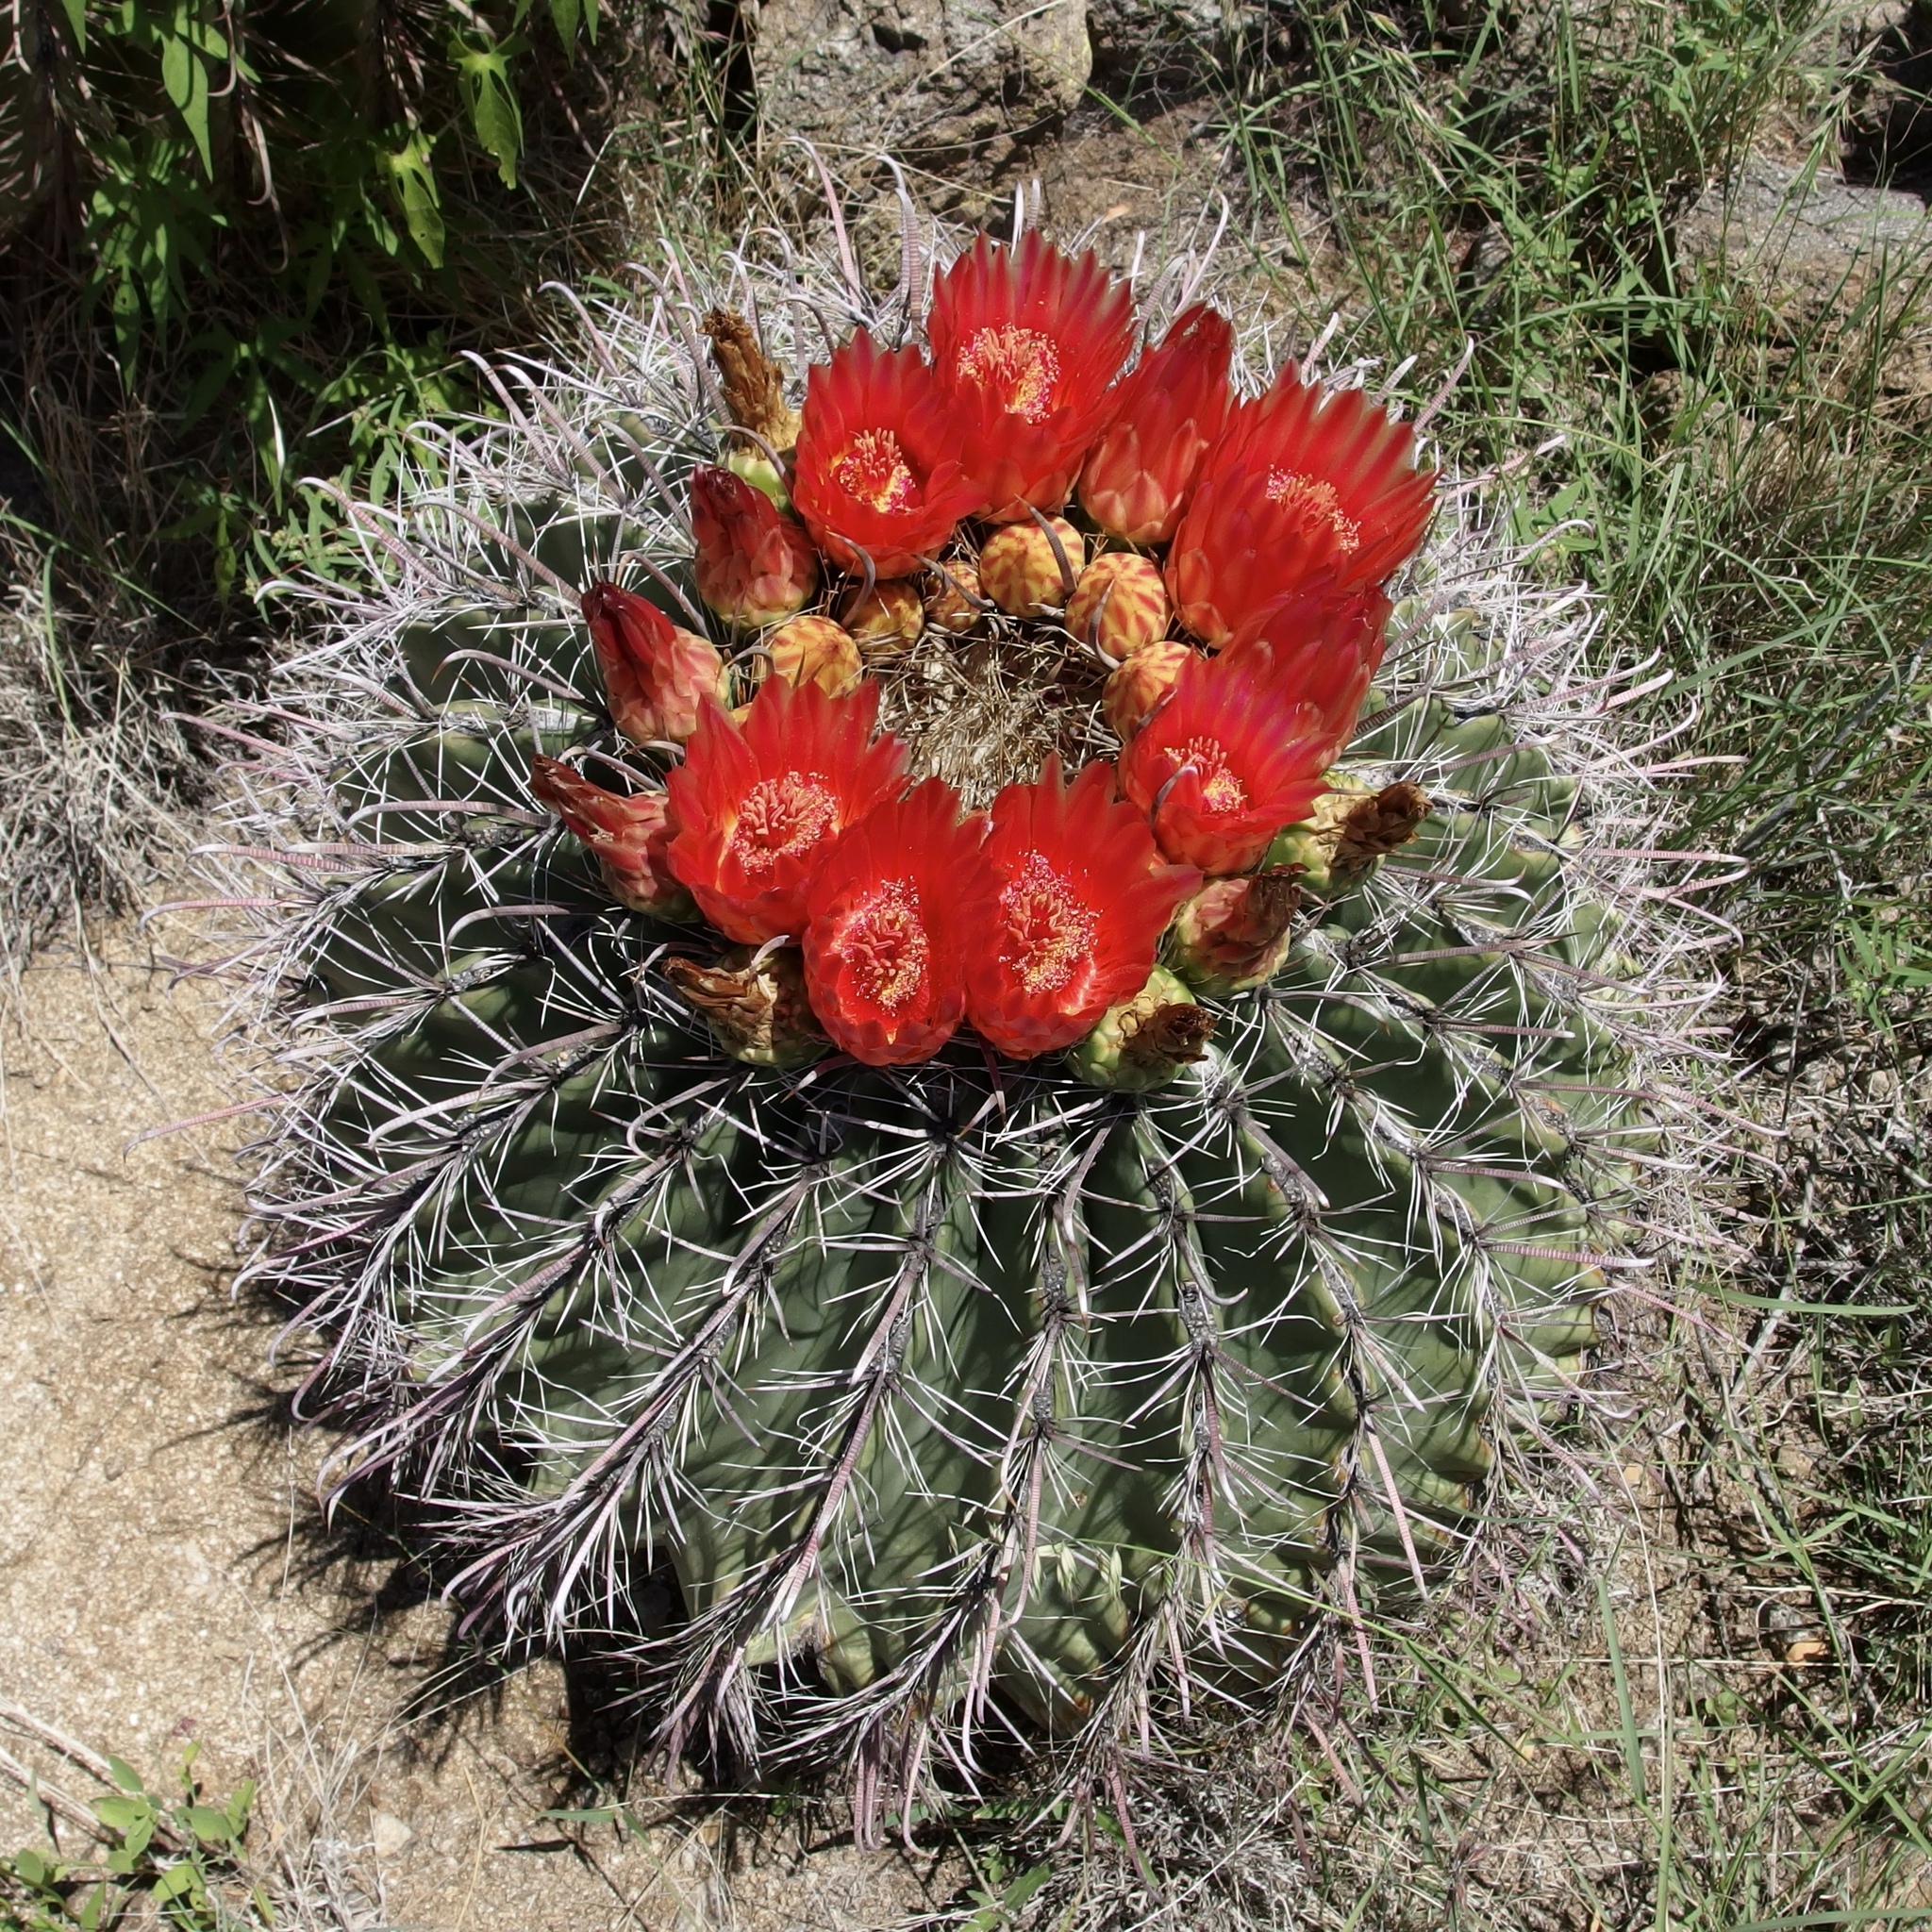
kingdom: Plantae
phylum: Tracheophyta
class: Magnoliopsida
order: Caryophyllales
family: Cactaceae
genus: Ferocactus
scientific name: Ferocactus wislizeni
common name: Candy barrel cactus
